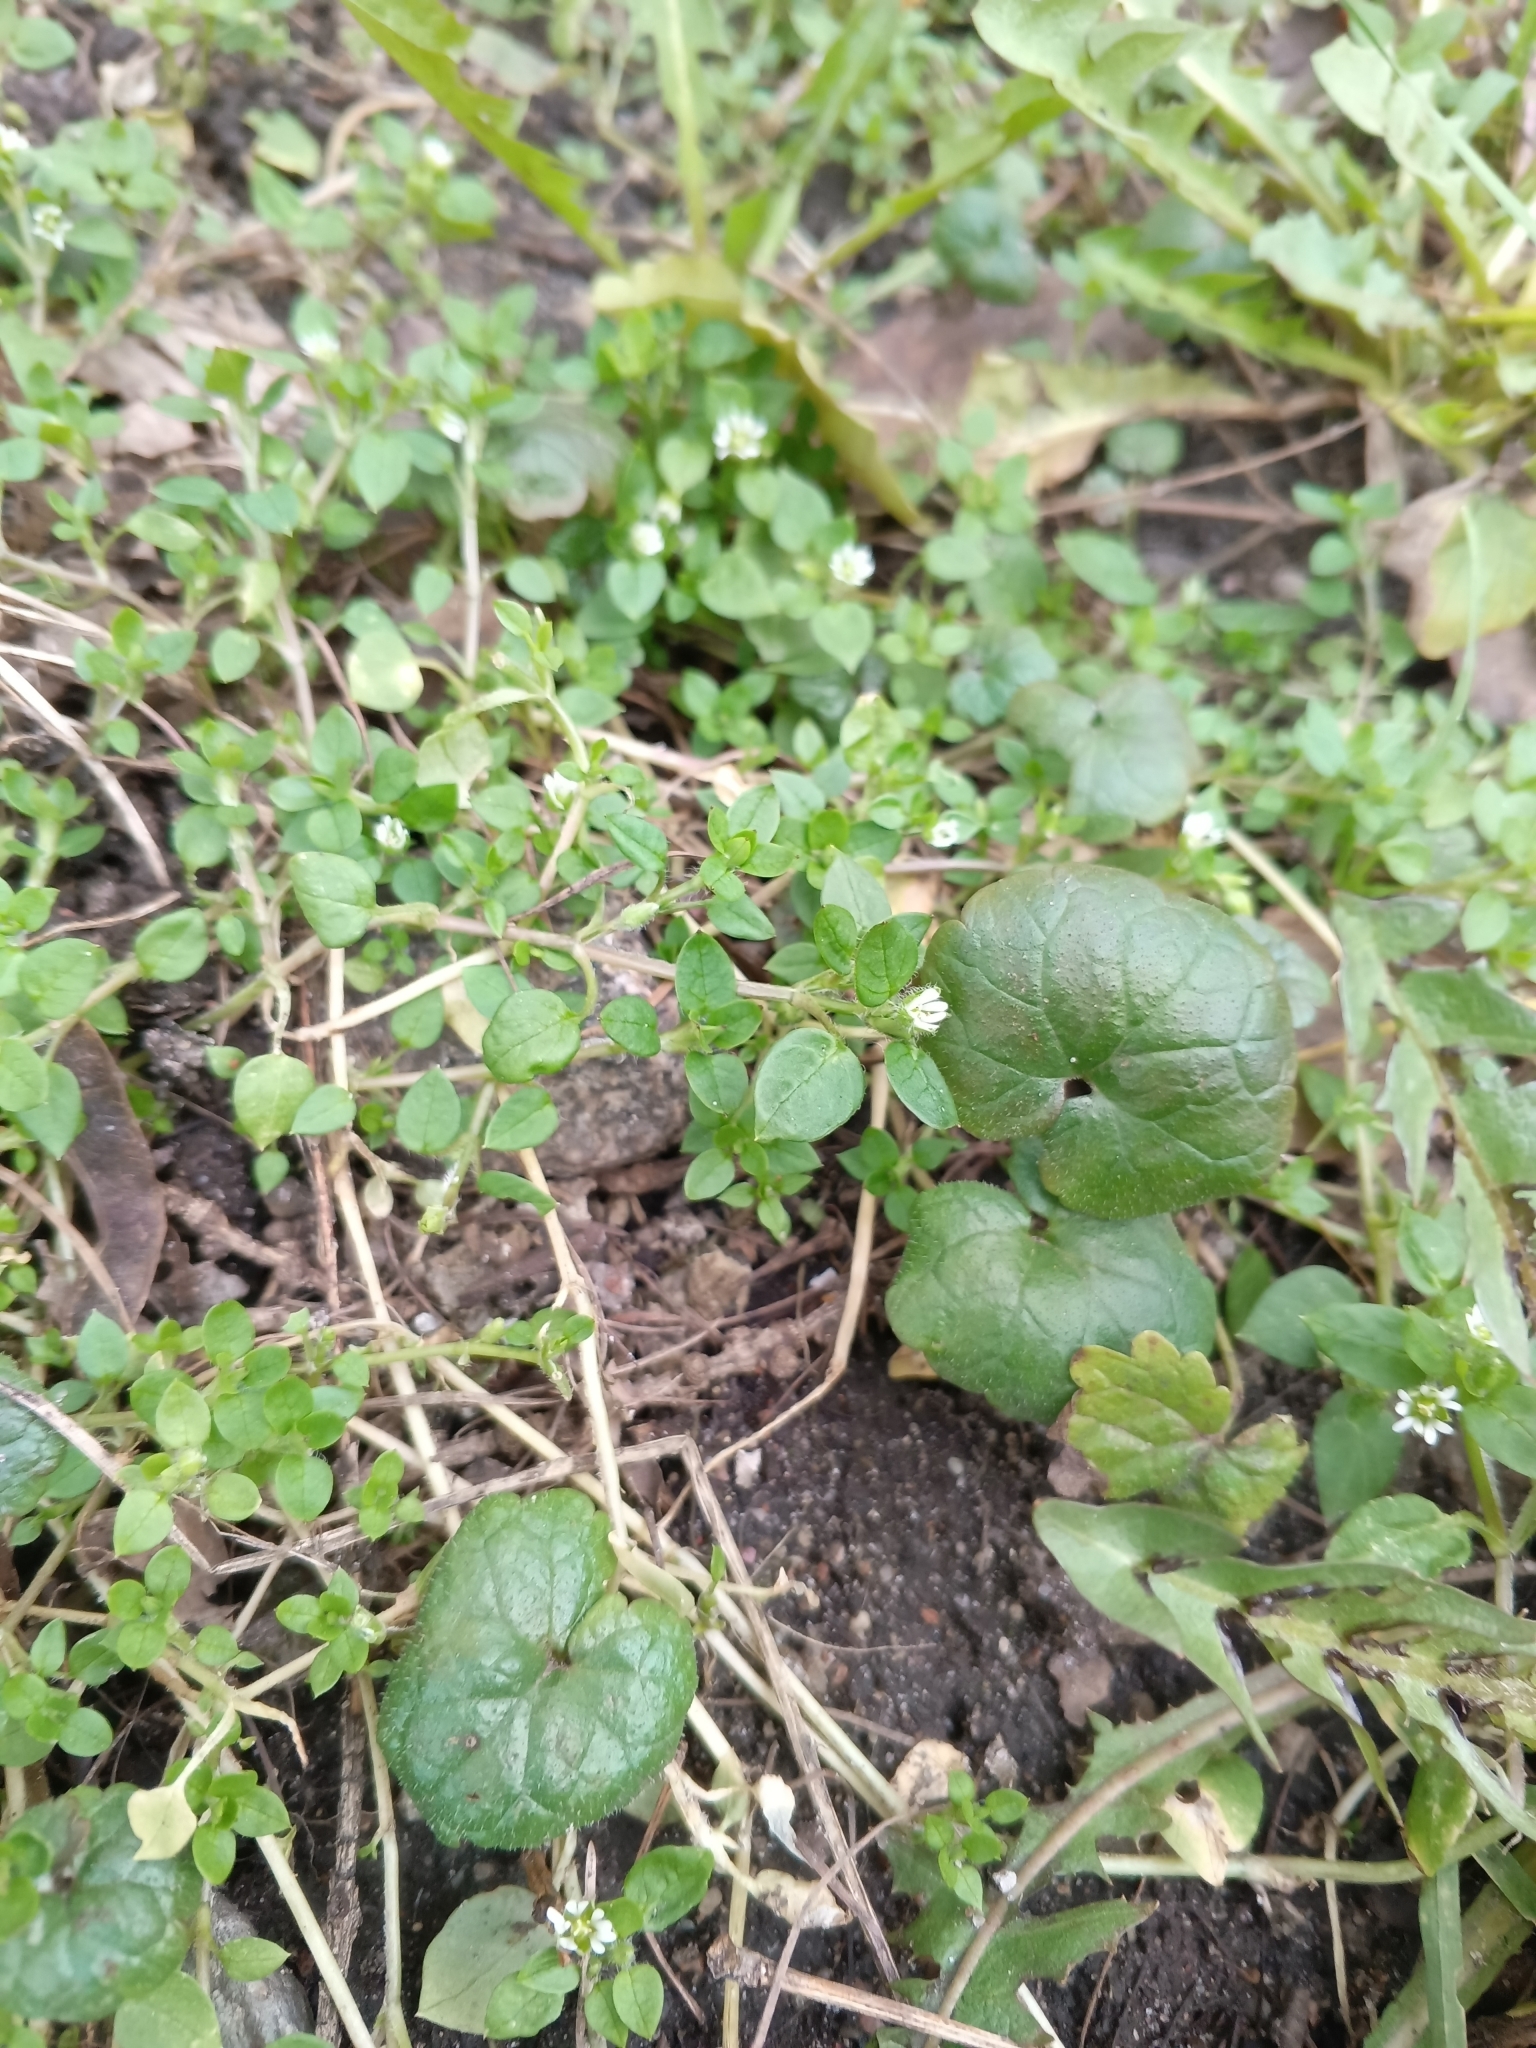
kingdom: Plantae
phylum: Tracheophyta
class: Magnoliopsida
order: Lamiales
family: Lamiaceae
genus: Glechoma
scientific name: Glechoma hederacea
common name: Ground ivy
